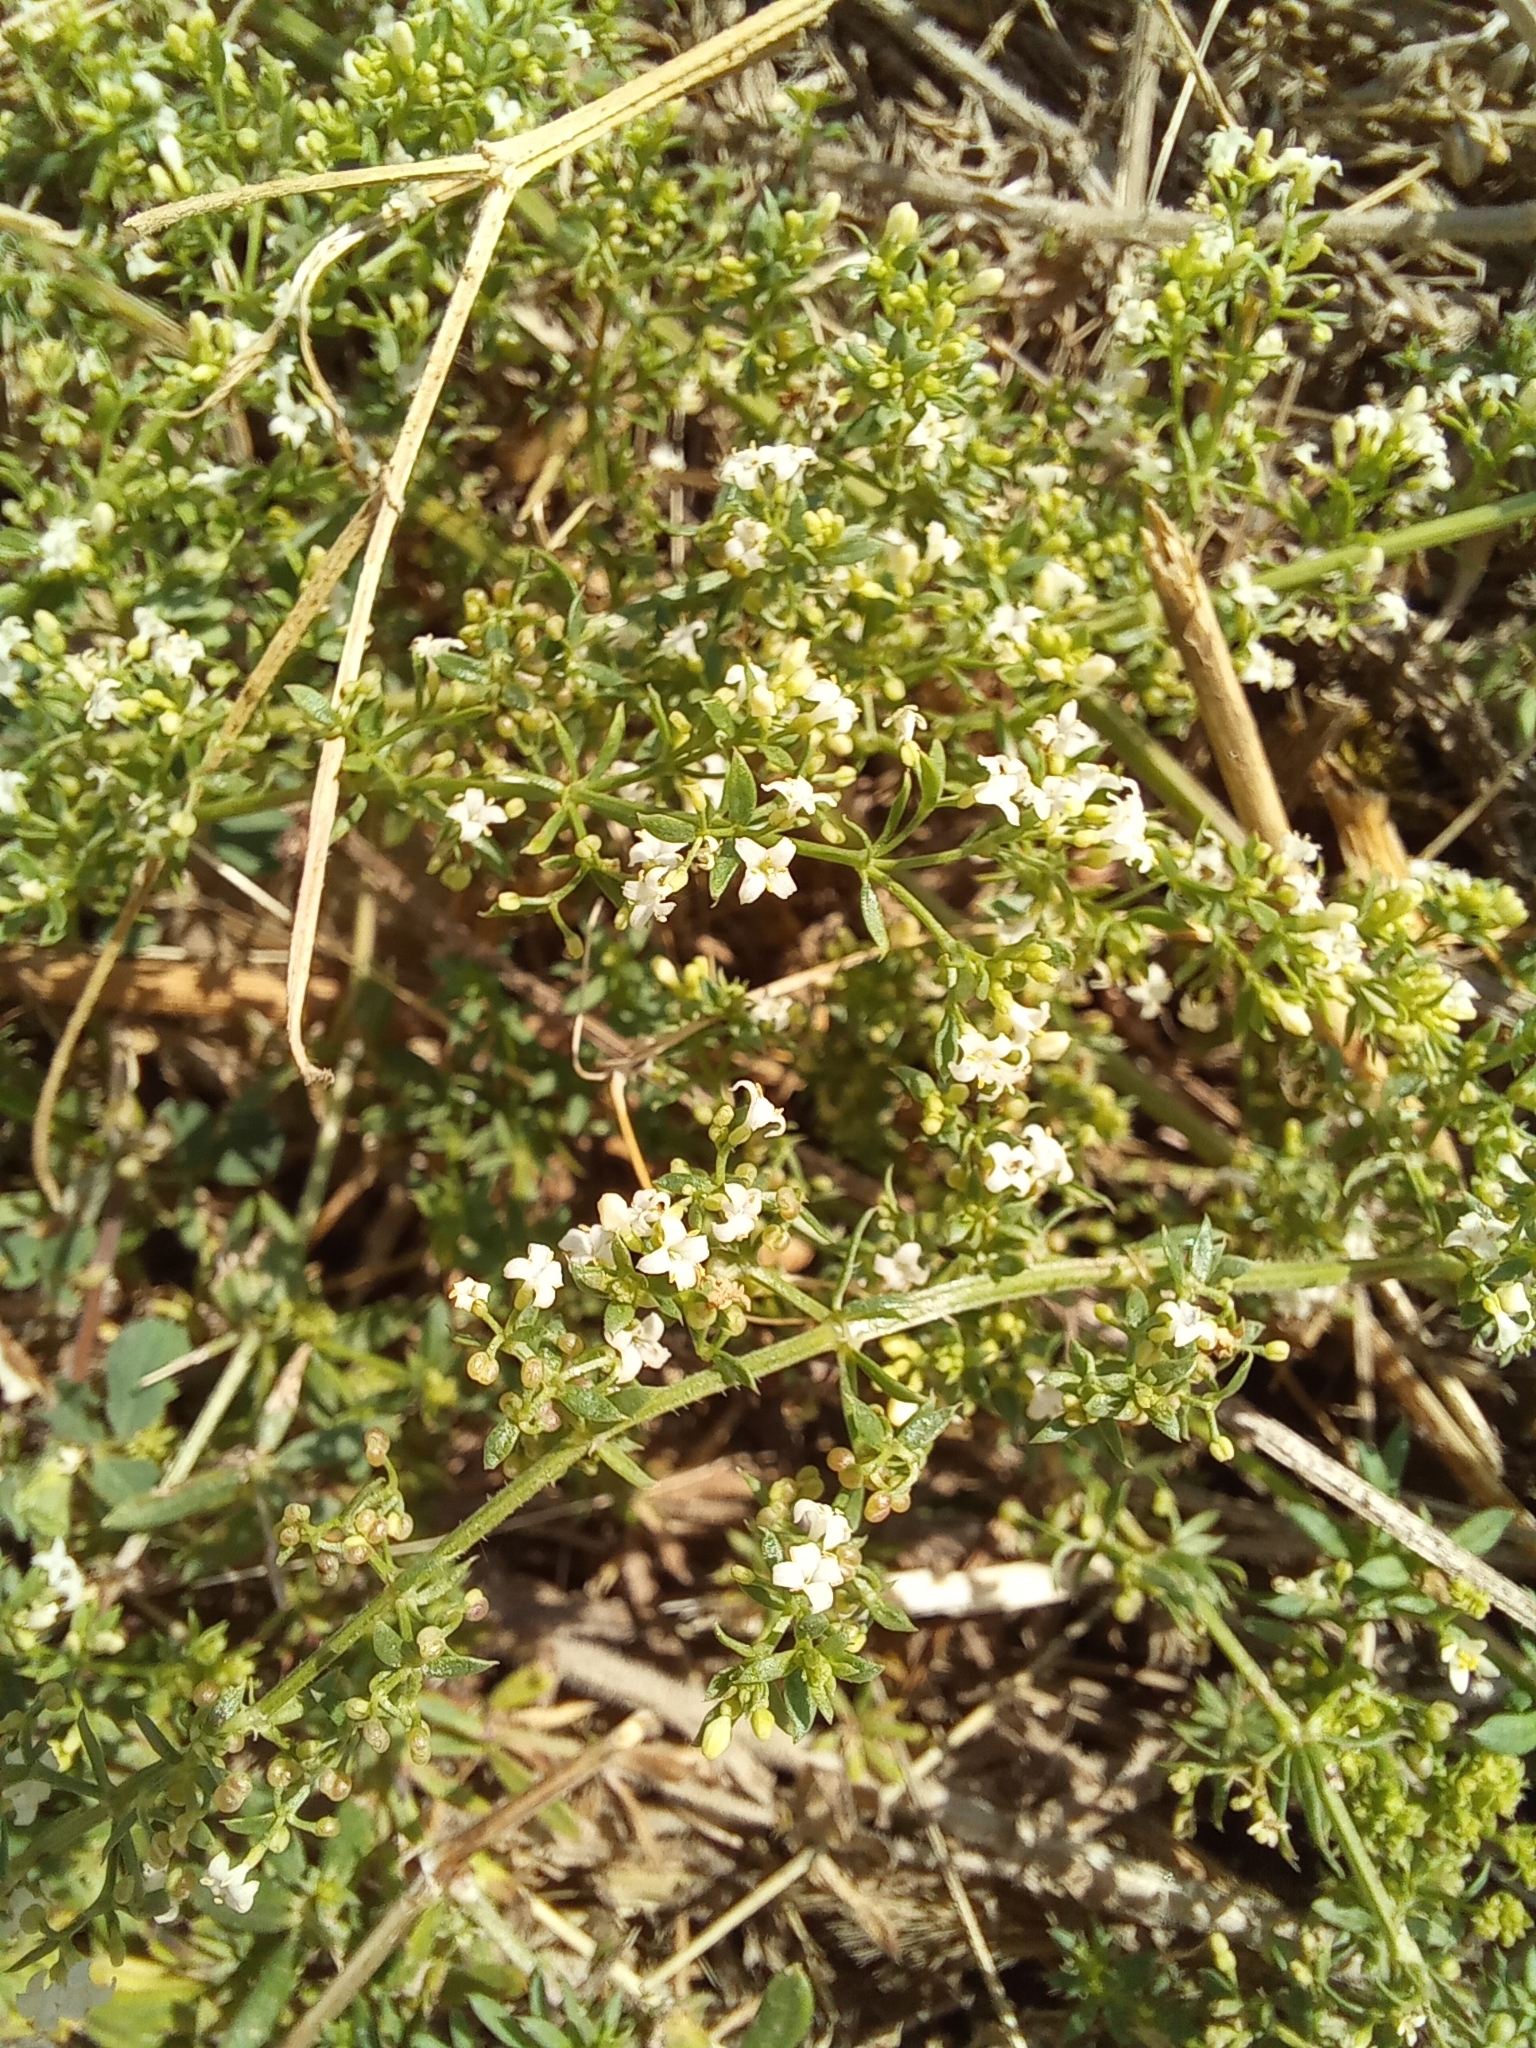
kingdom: Plantae
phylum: Tracheophyta
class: Magnoliopsida
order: Gentianales
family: Rubiaceae
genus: Galium
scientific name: Galium humifusum
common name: Spreading bedstraw
